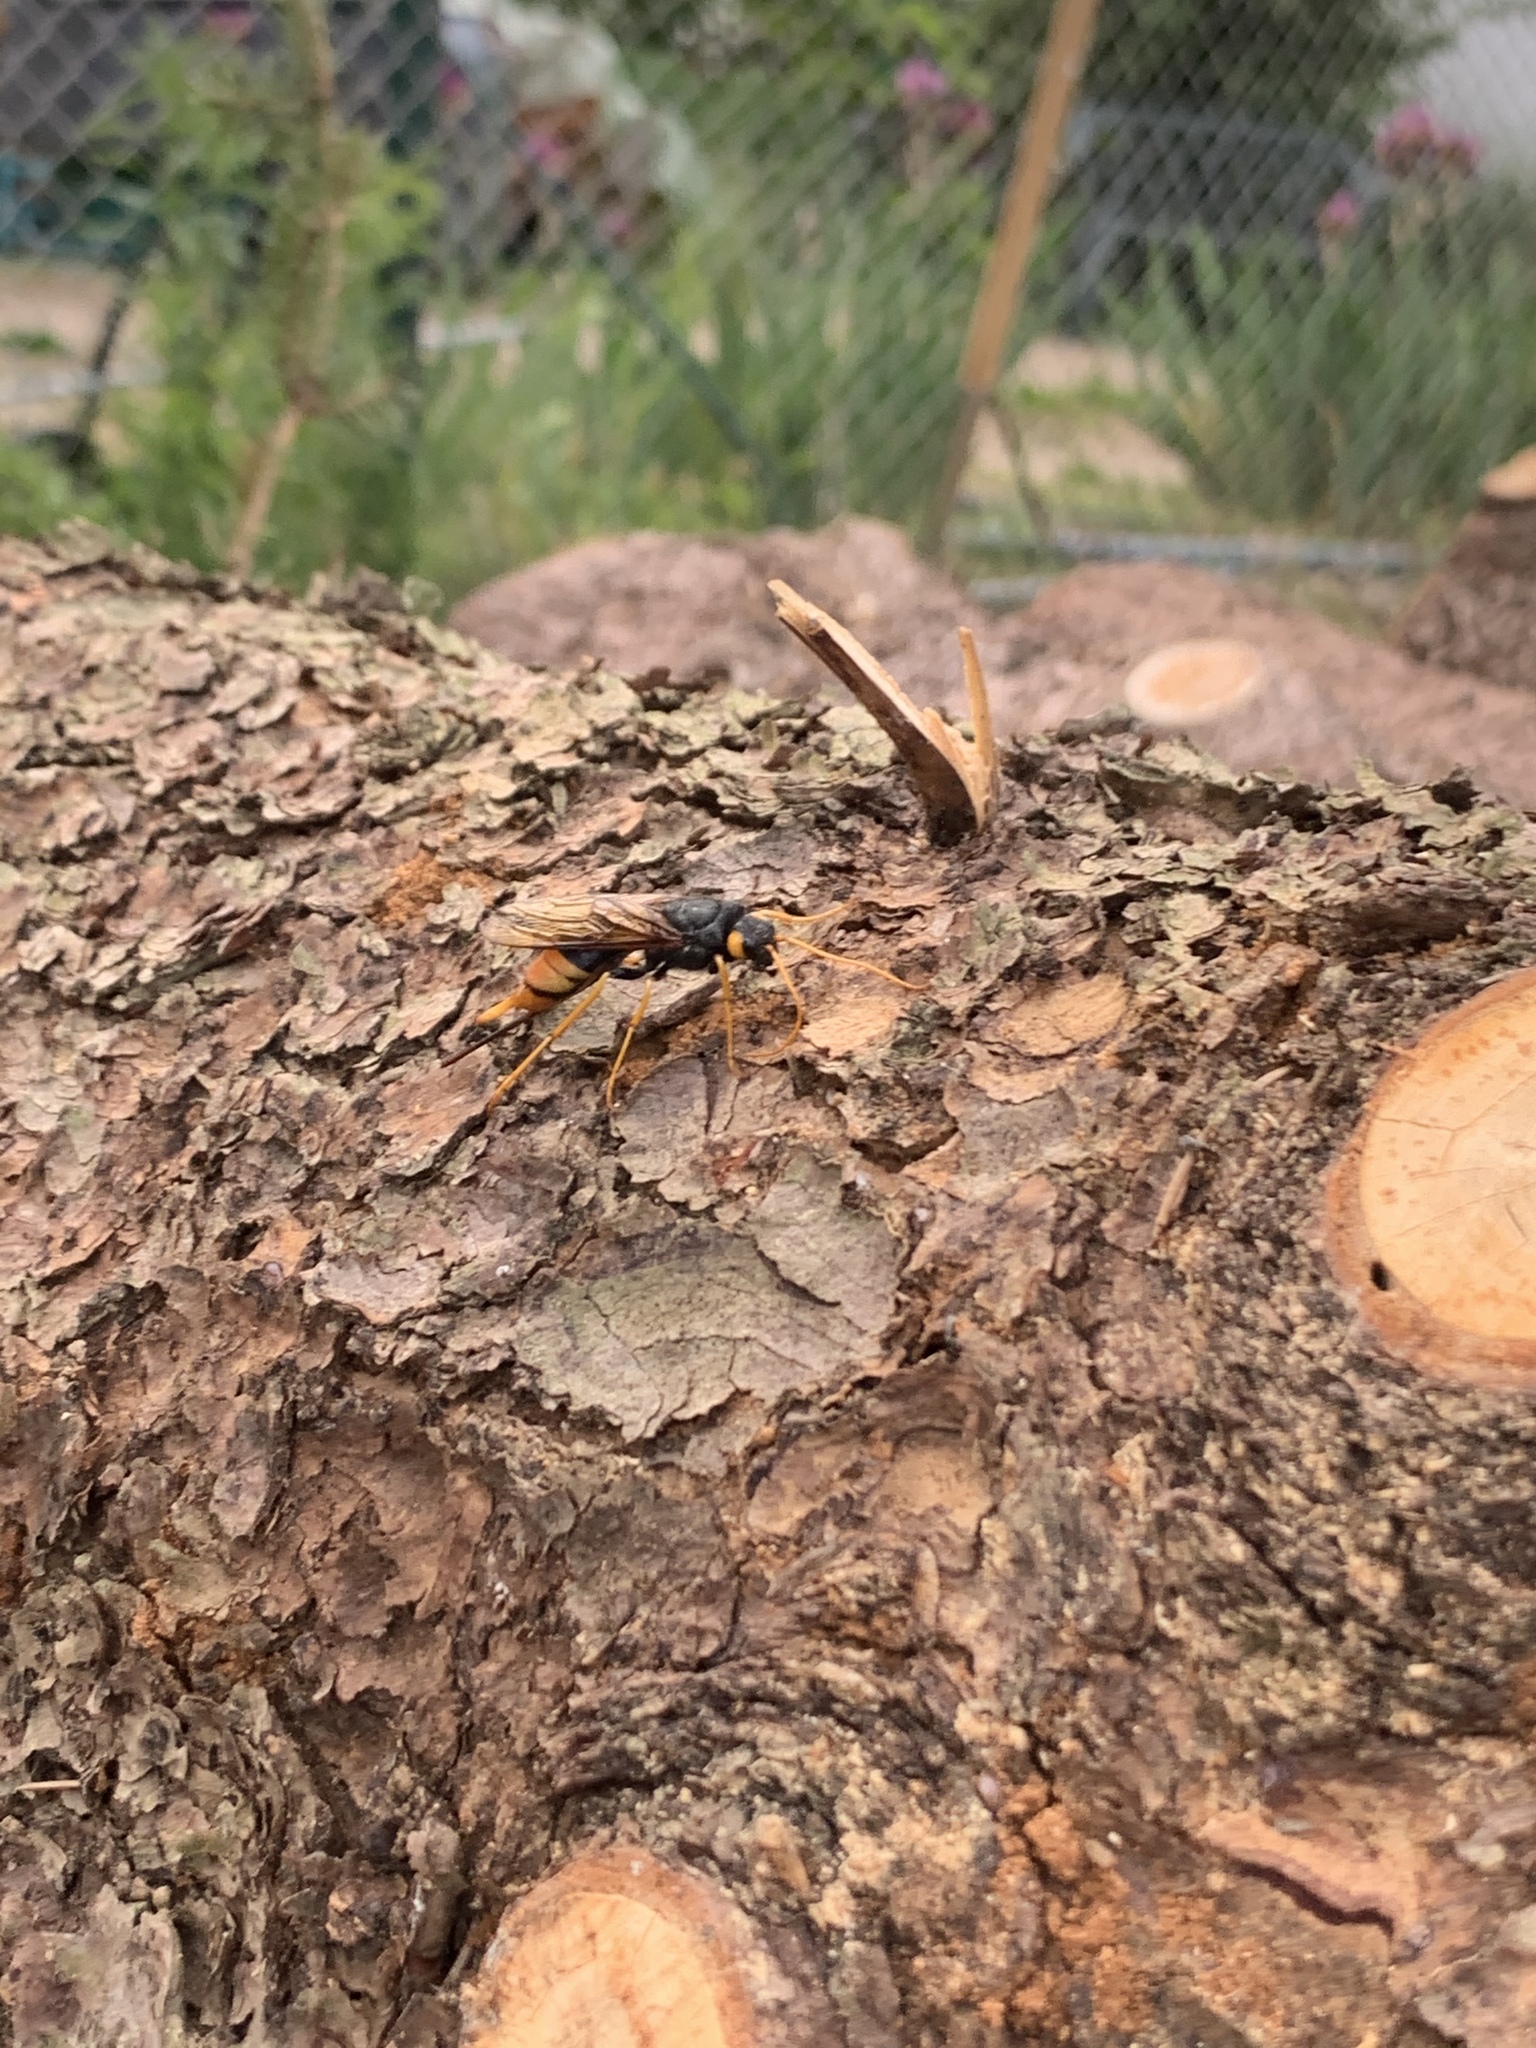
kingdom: Animalia
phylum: Arthropoda
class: Insecta
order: Hymenoptera
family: Siricidae
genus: Urocerus
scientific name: Urocerus gigas
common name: Giant woodwasp
